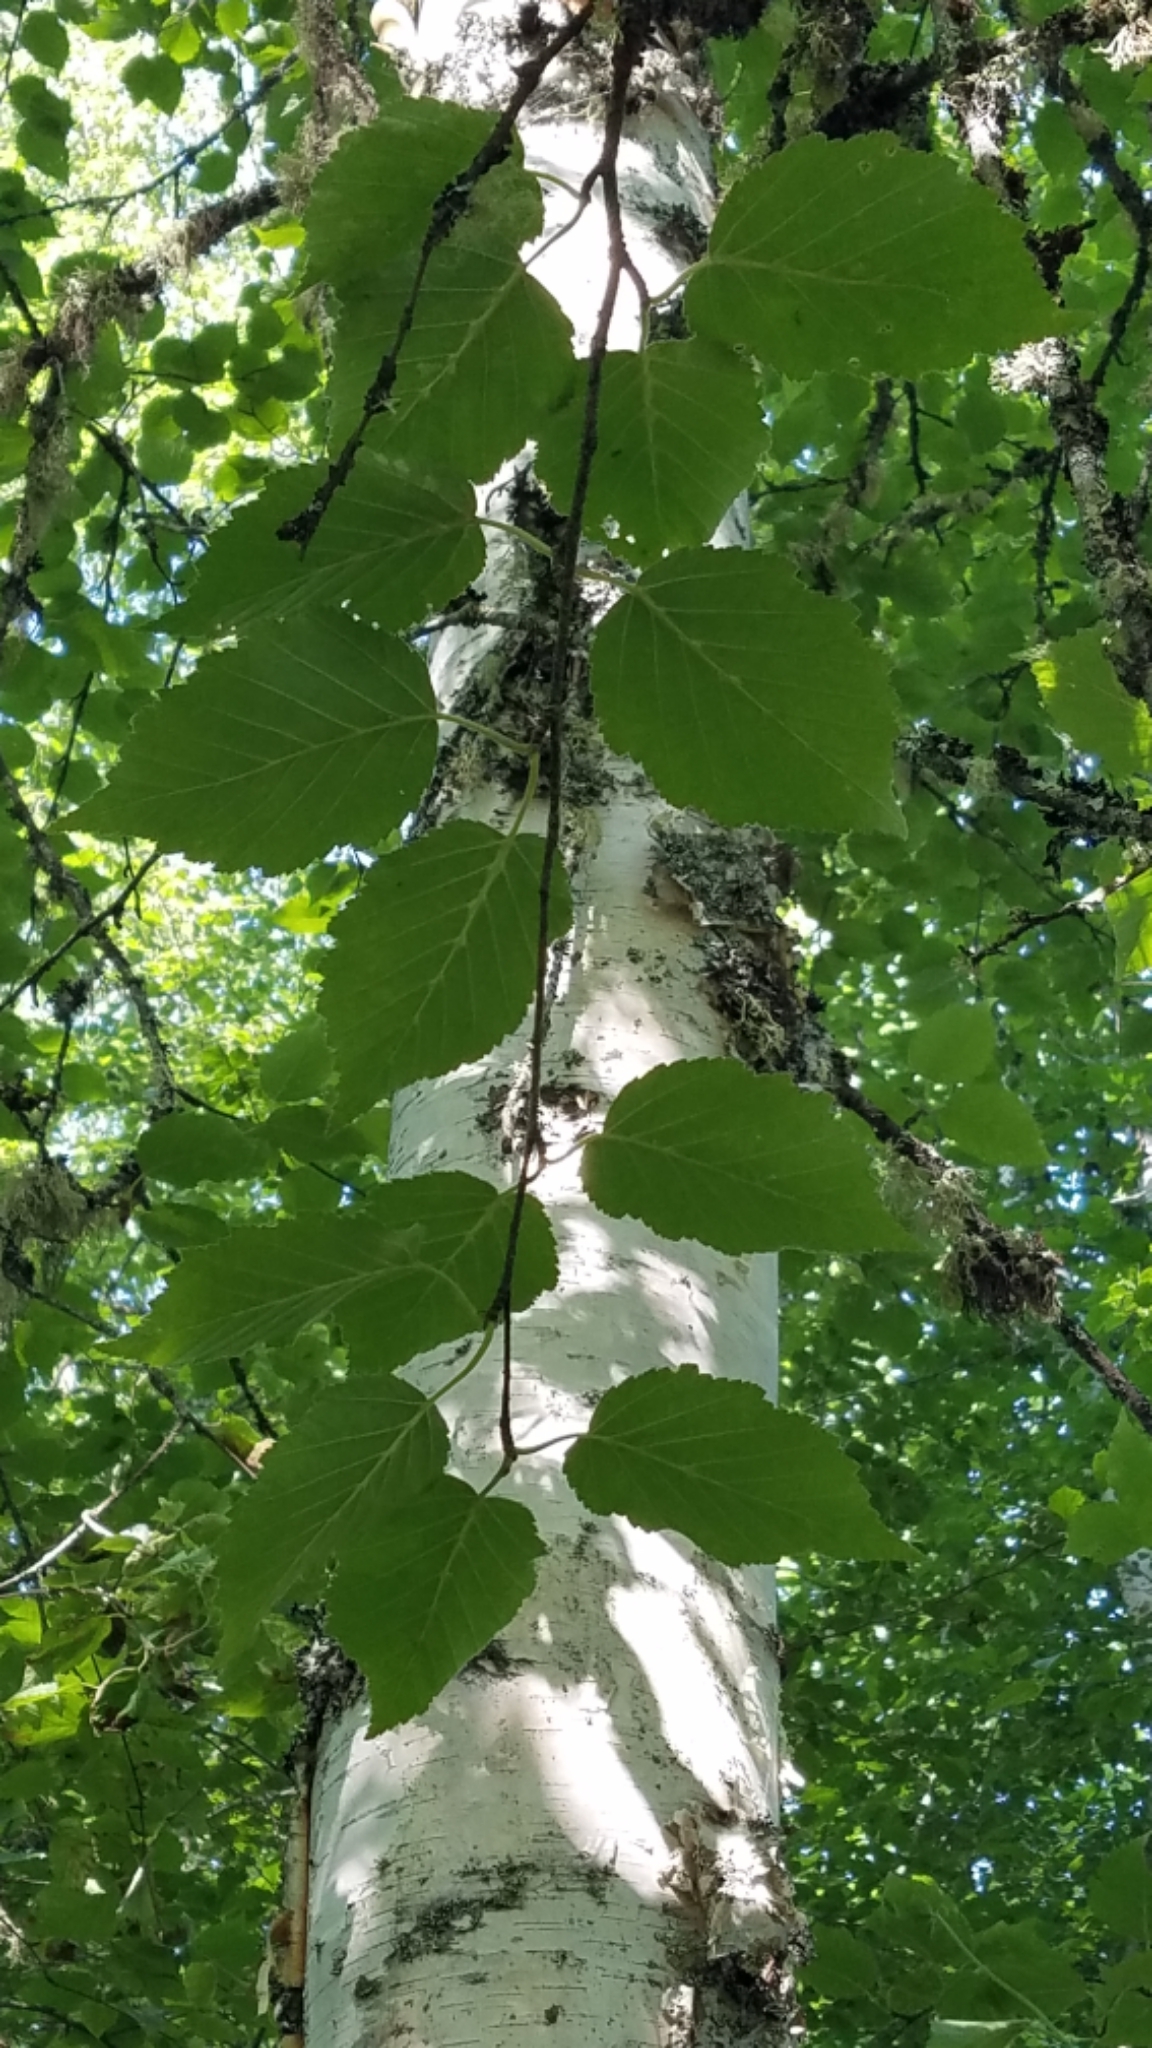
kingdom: Plantae
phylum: Tracheophyta
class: Magnoliopsida
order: Fagales
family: Betulaceae
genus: Betula
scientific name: Betula papyrifera
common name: Paper birch
